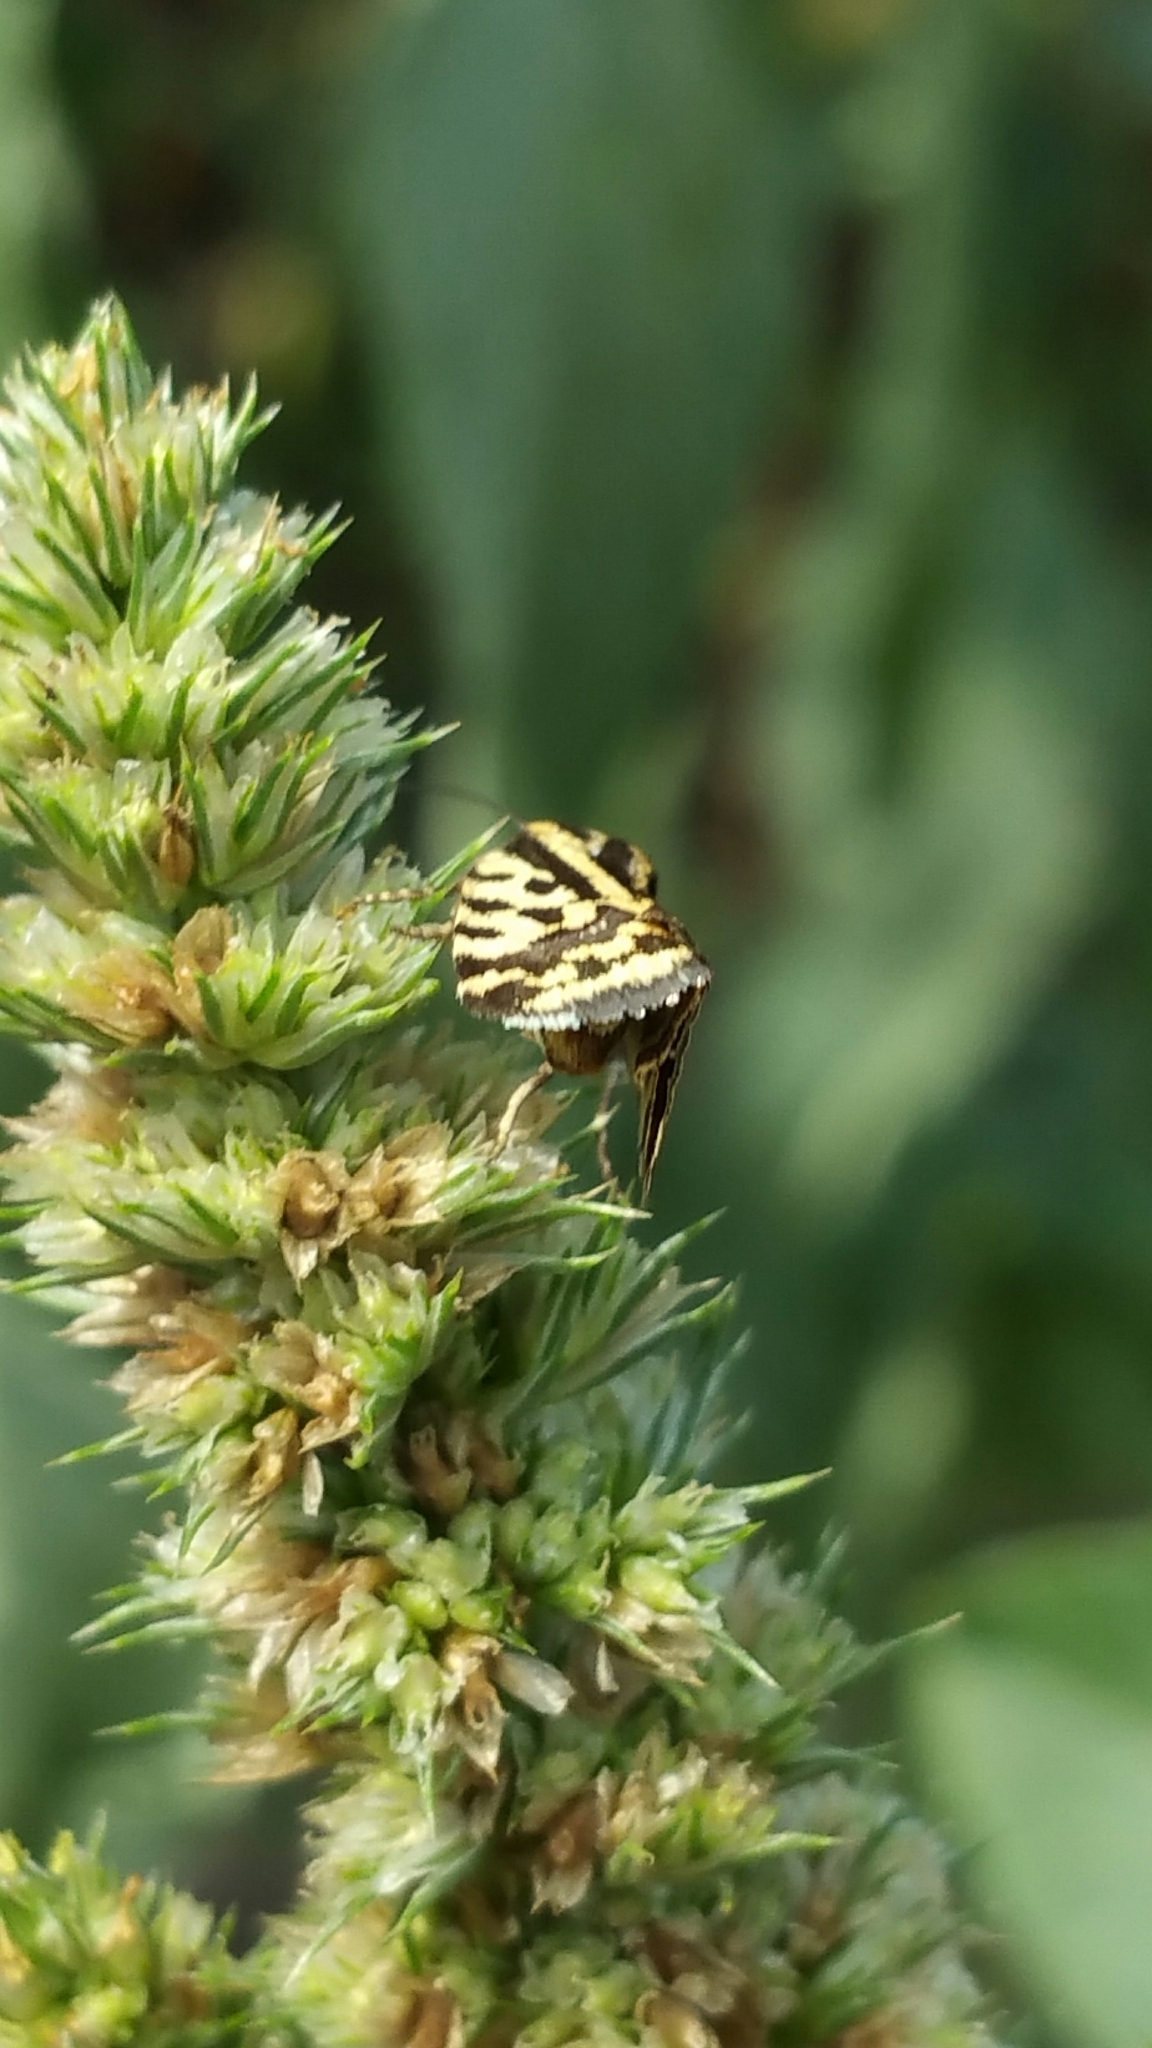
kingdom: Animalia
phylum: Arthropoda
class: Insecta
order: Lepidoptera
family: Noctuidae
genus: Acontia
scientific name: Acontia trabealis
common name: Spotted sulphur
